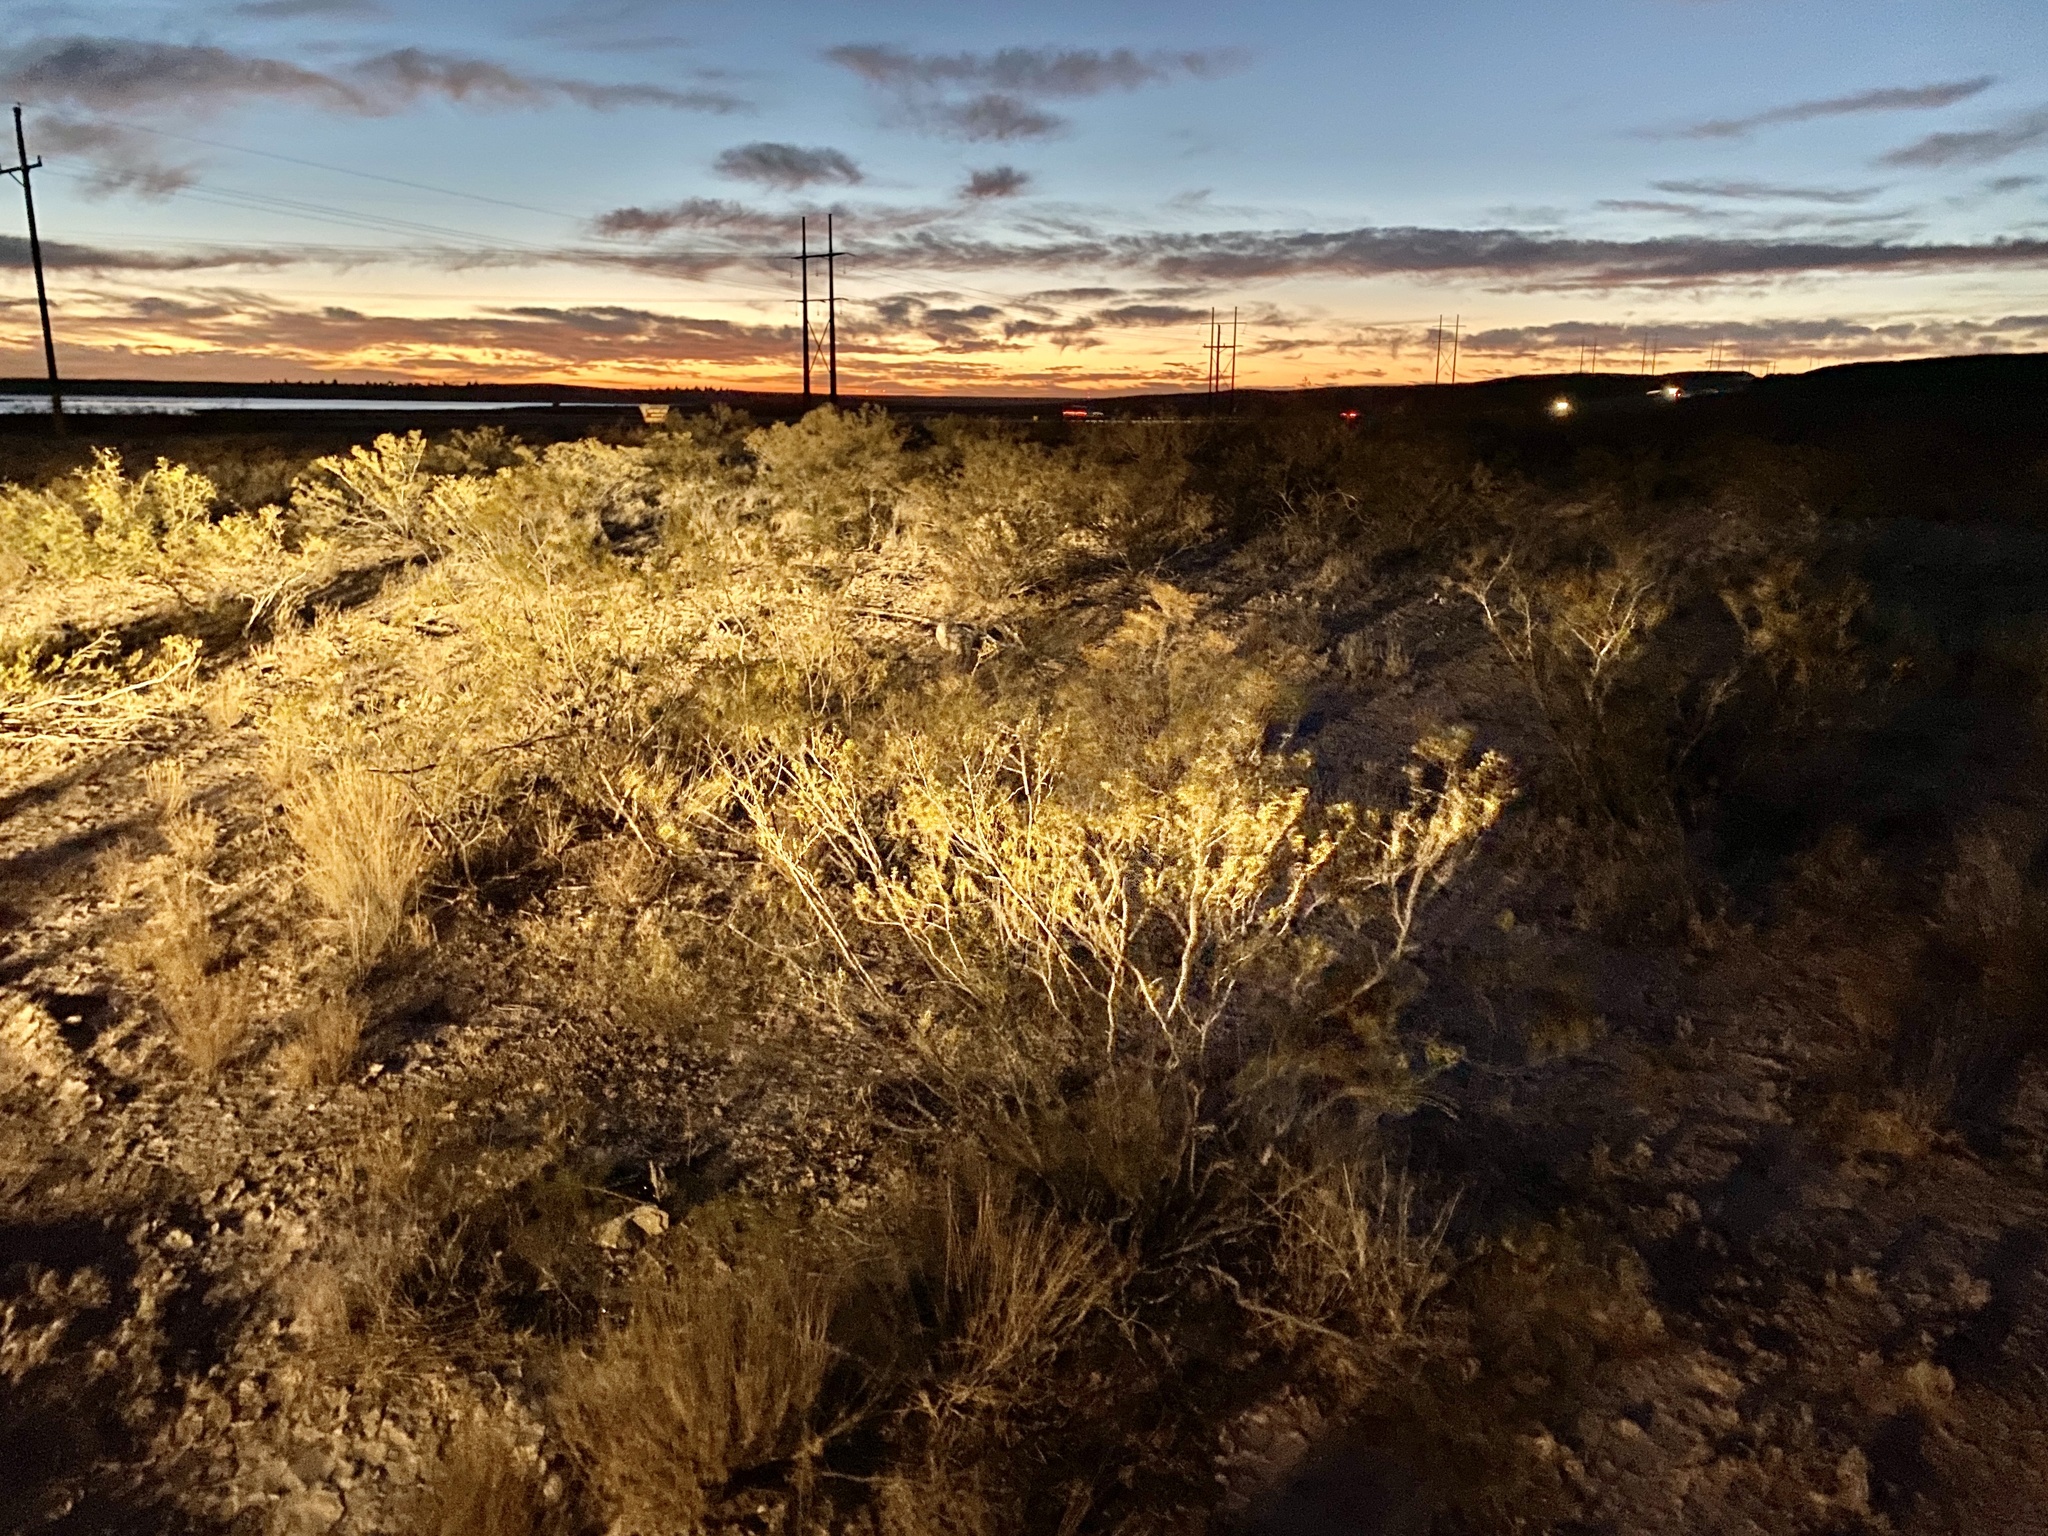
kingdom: Plantae
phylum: Tracheophyta
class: Magnoliopsida
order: Zygophyllales
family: Zygophyllaceae
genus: Larrea
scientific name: Larrea tridentata
